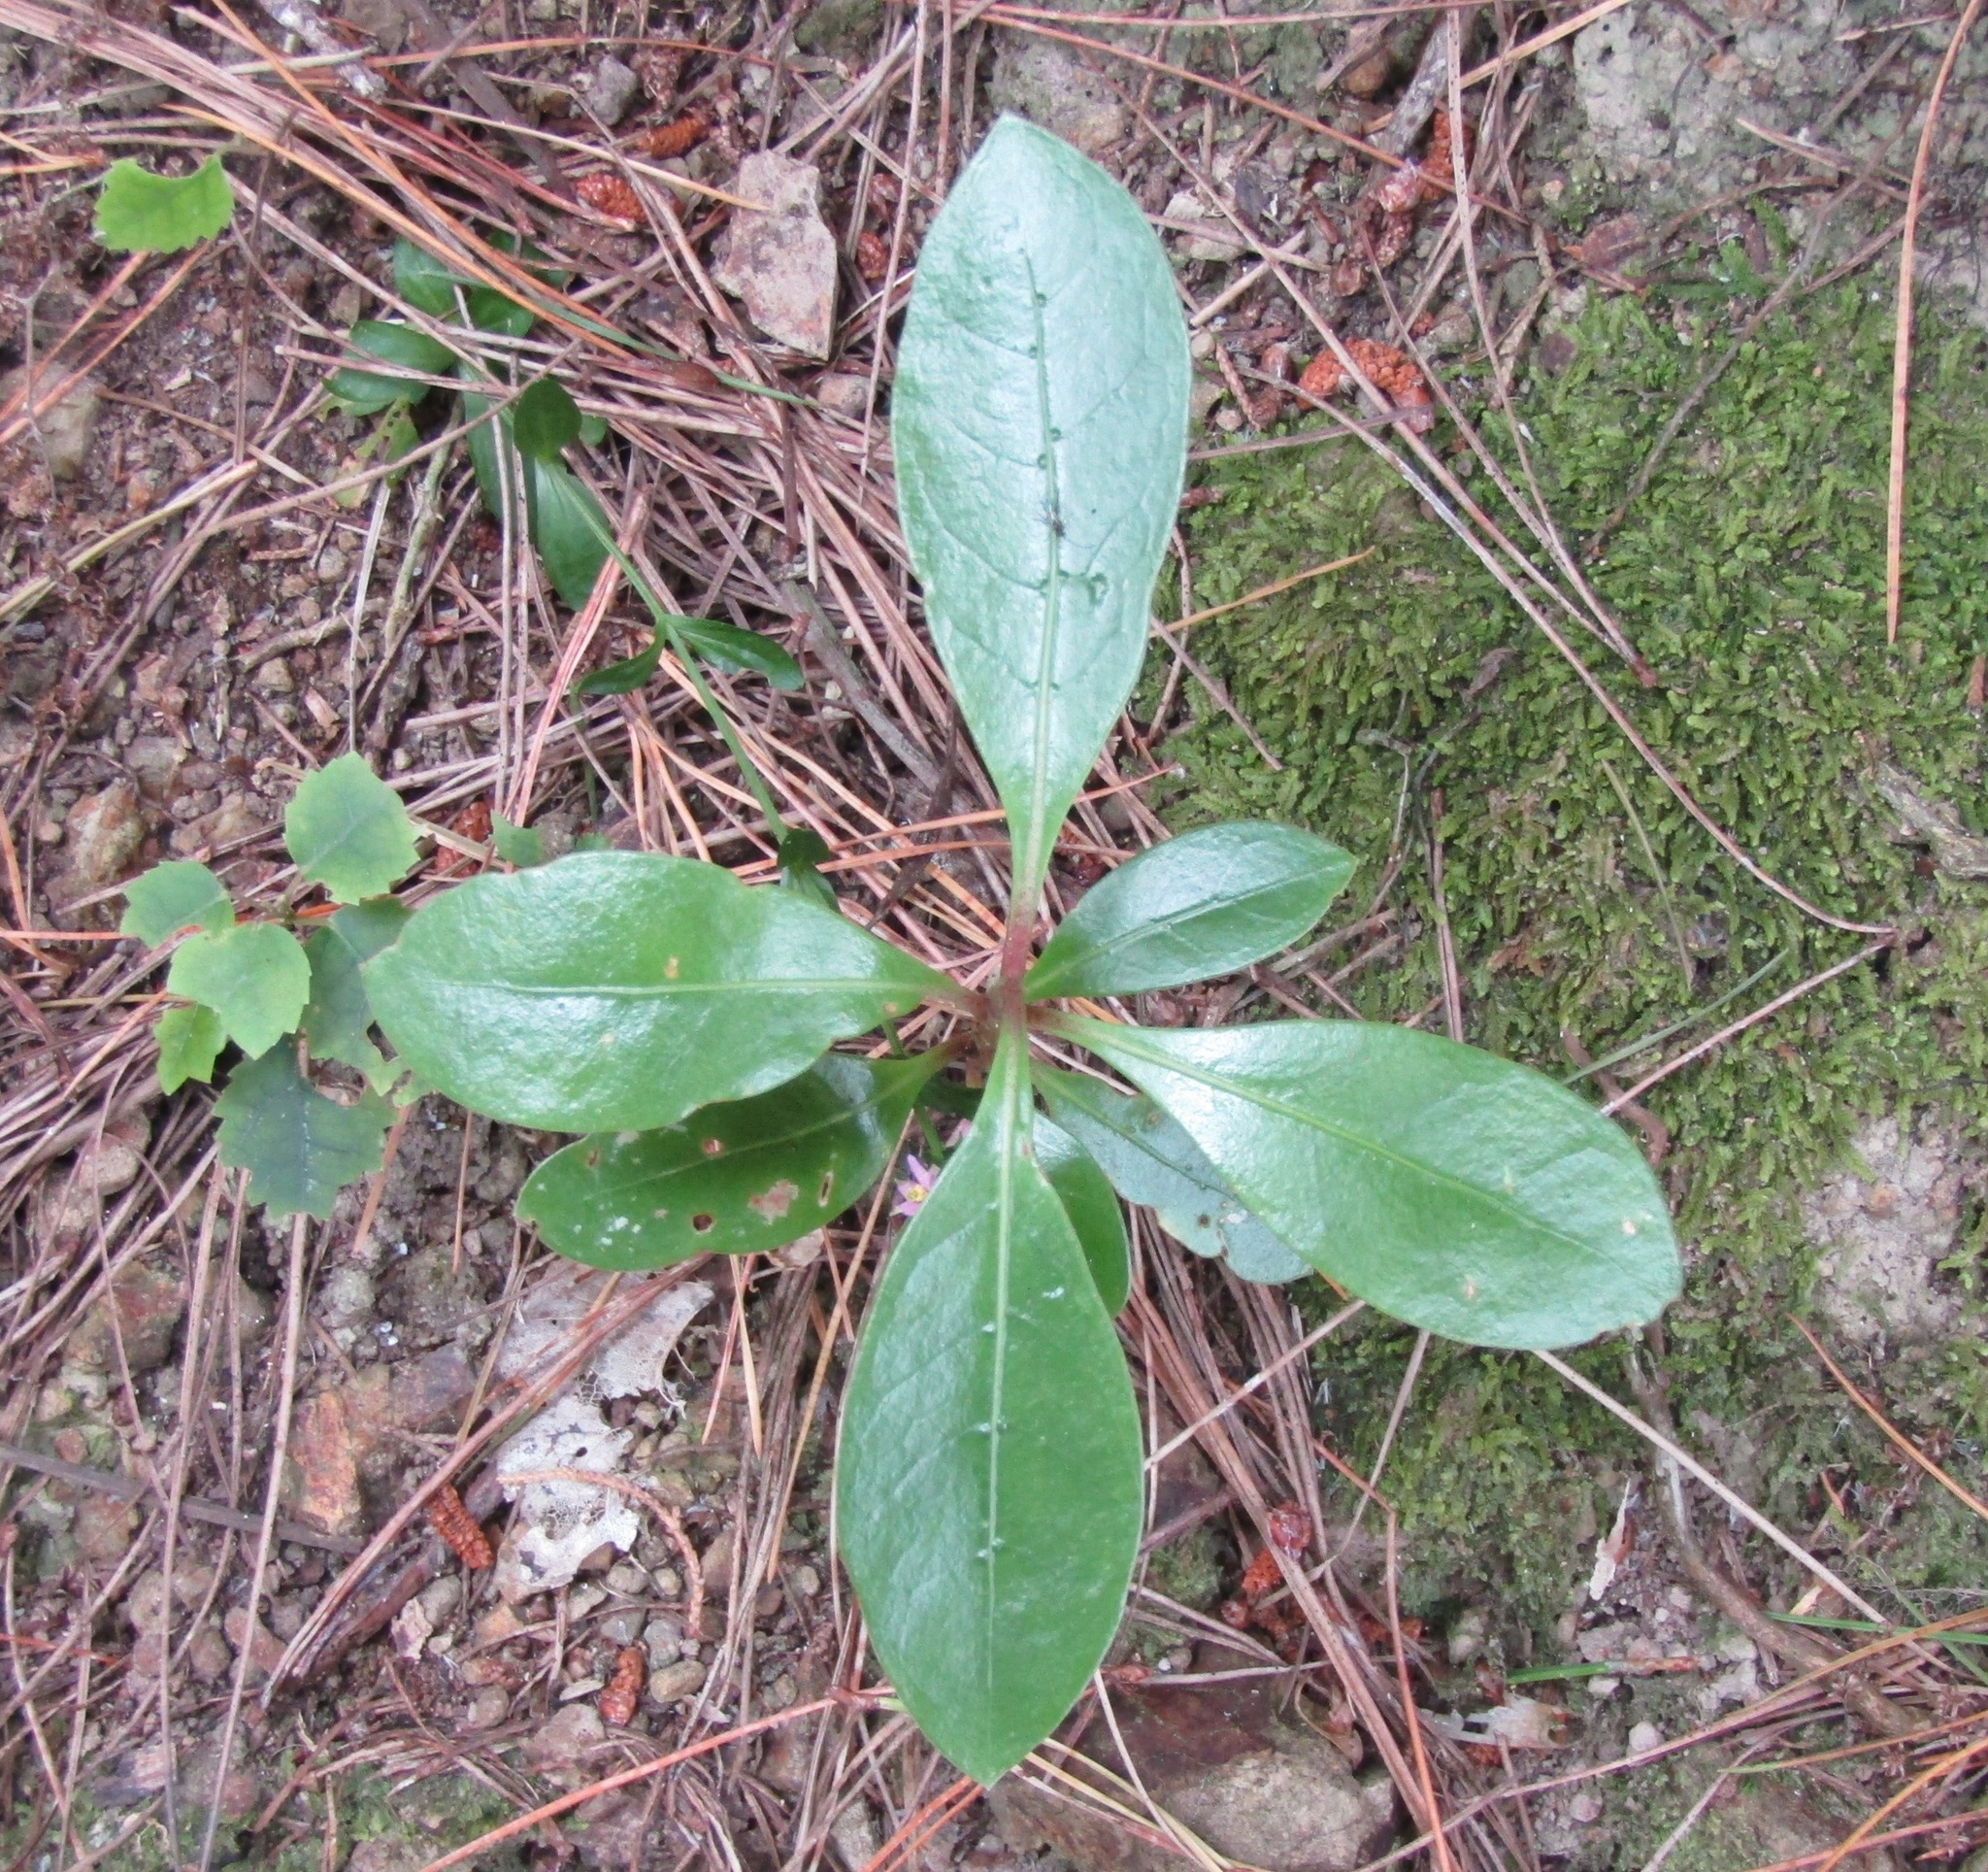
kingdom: Plantae
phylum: Tracheophyta
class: Magnoliopsida
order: Gentianales
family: Rubiaceae
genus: Coprosma
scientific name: Coprosma lucida
